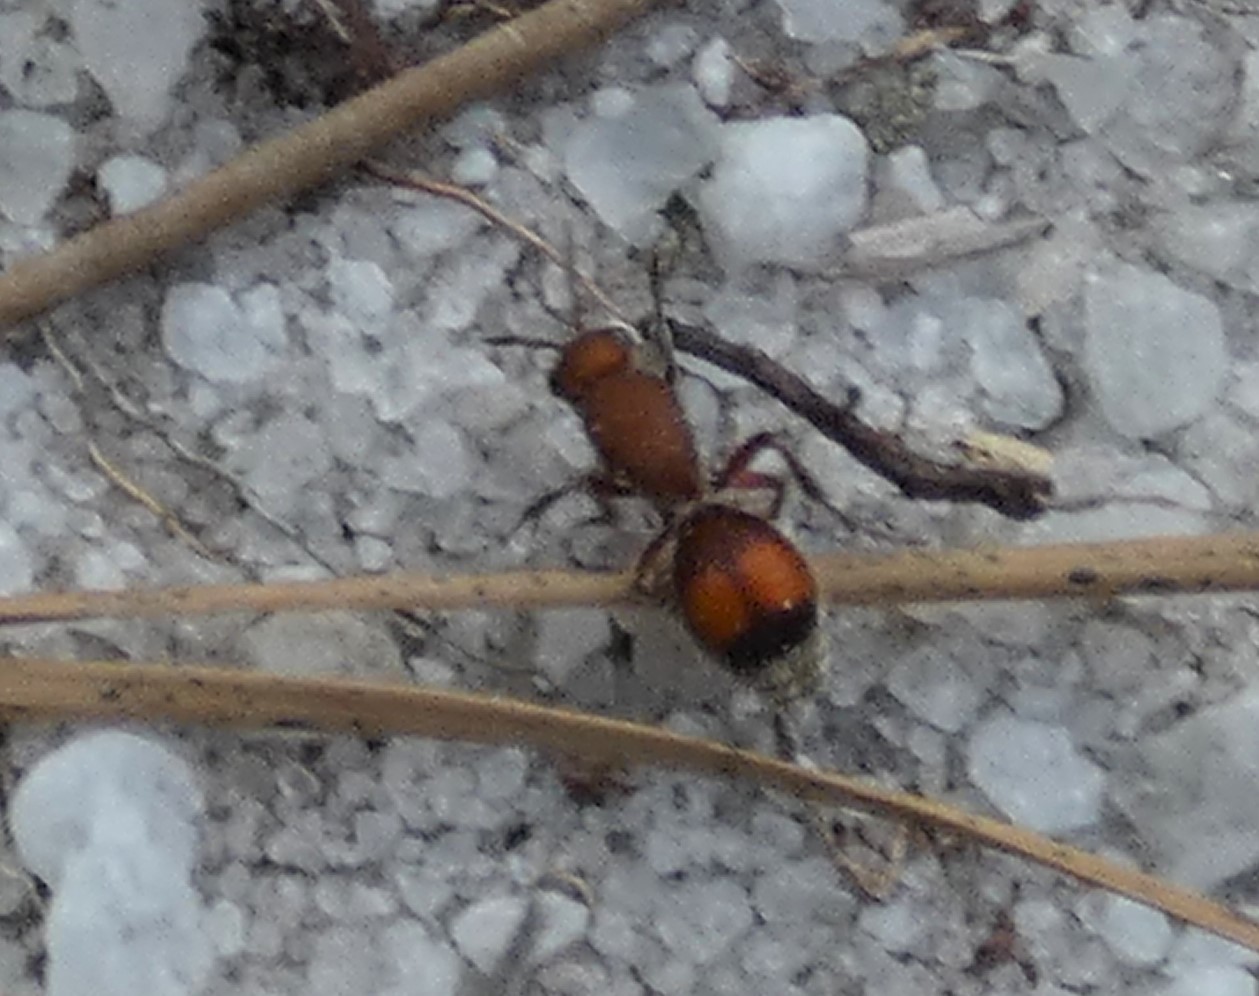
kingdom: Animalia
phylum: Arthropoda
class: Insecta
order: Hymenoptera
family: Mutillidae
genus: Dasymutilla
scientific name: Dasymutilla
